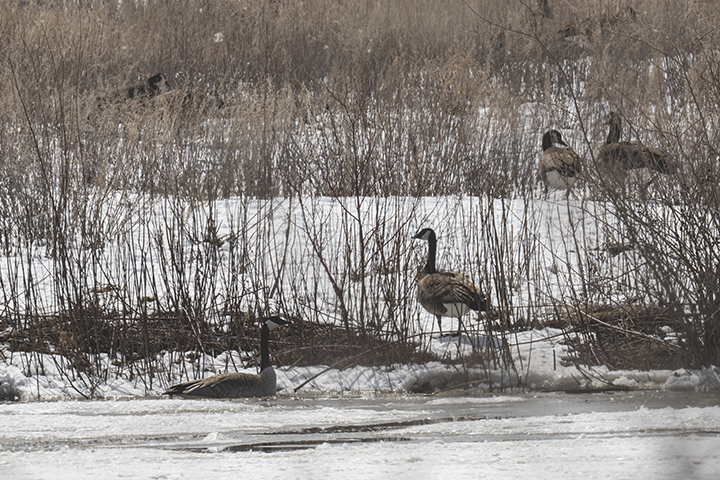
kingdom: Animalia
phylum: Chordata
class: Aves
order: Anseriformes
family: Anatidae
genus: Branta
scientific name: Branta canadensis
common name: Canada goose
